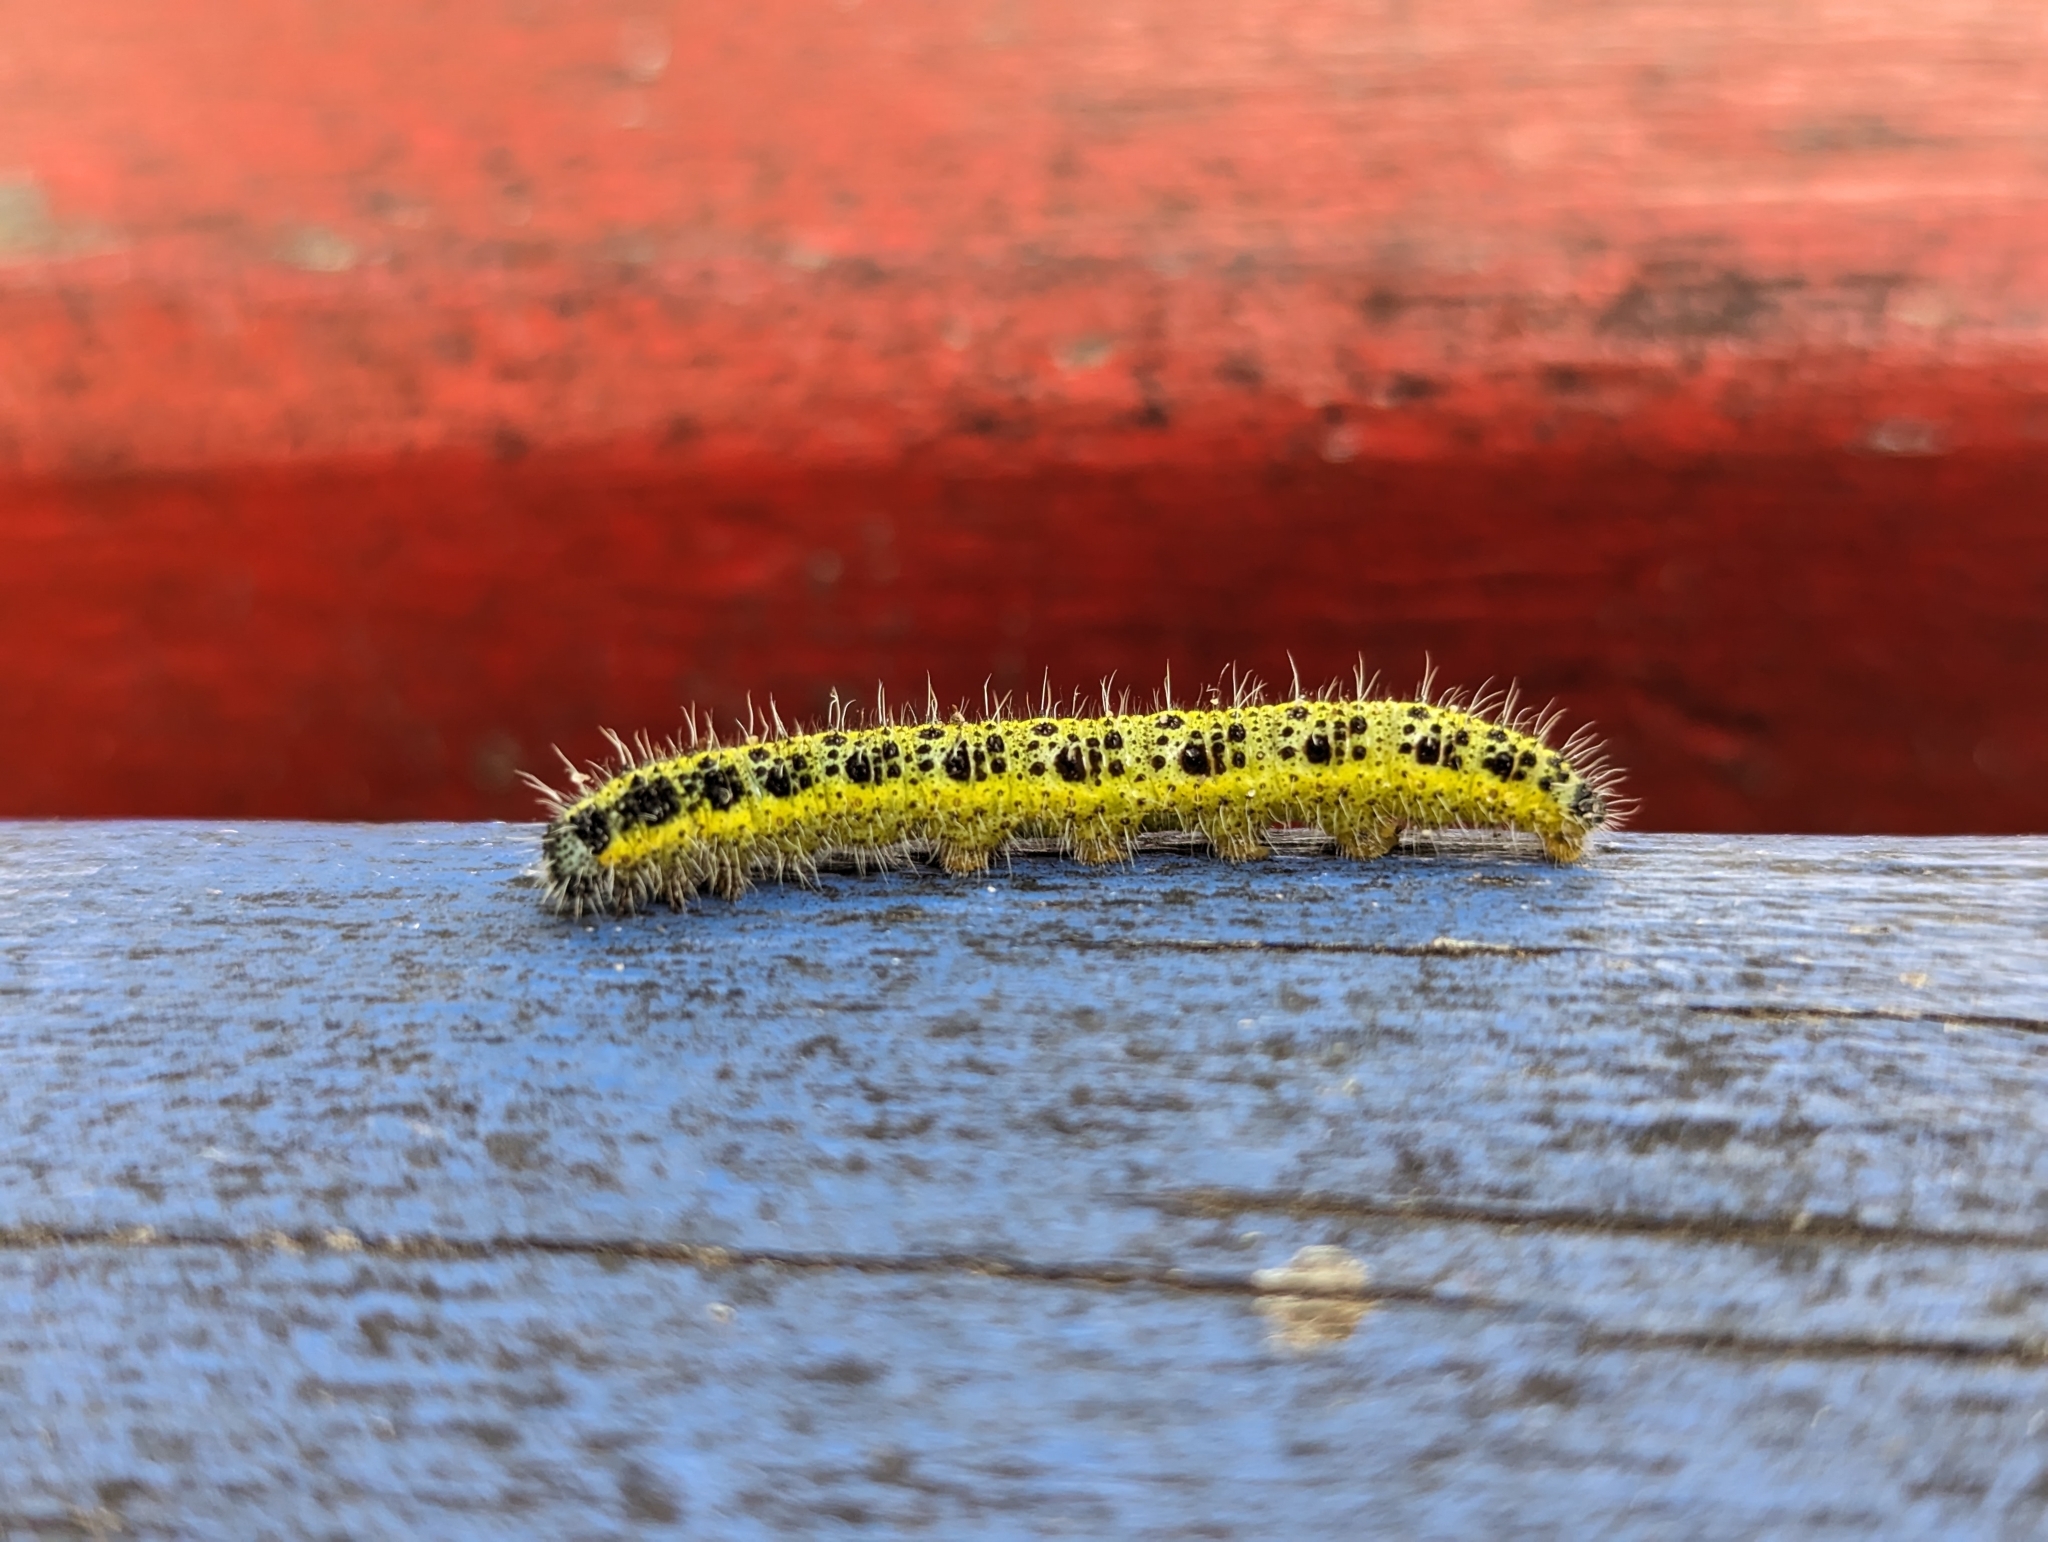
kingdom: Animalia
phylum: Arthropoda
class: Insecta
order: Lepidoptera
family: Pieridae
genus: Pieris
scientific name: Pieris brassicae
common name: Large white
